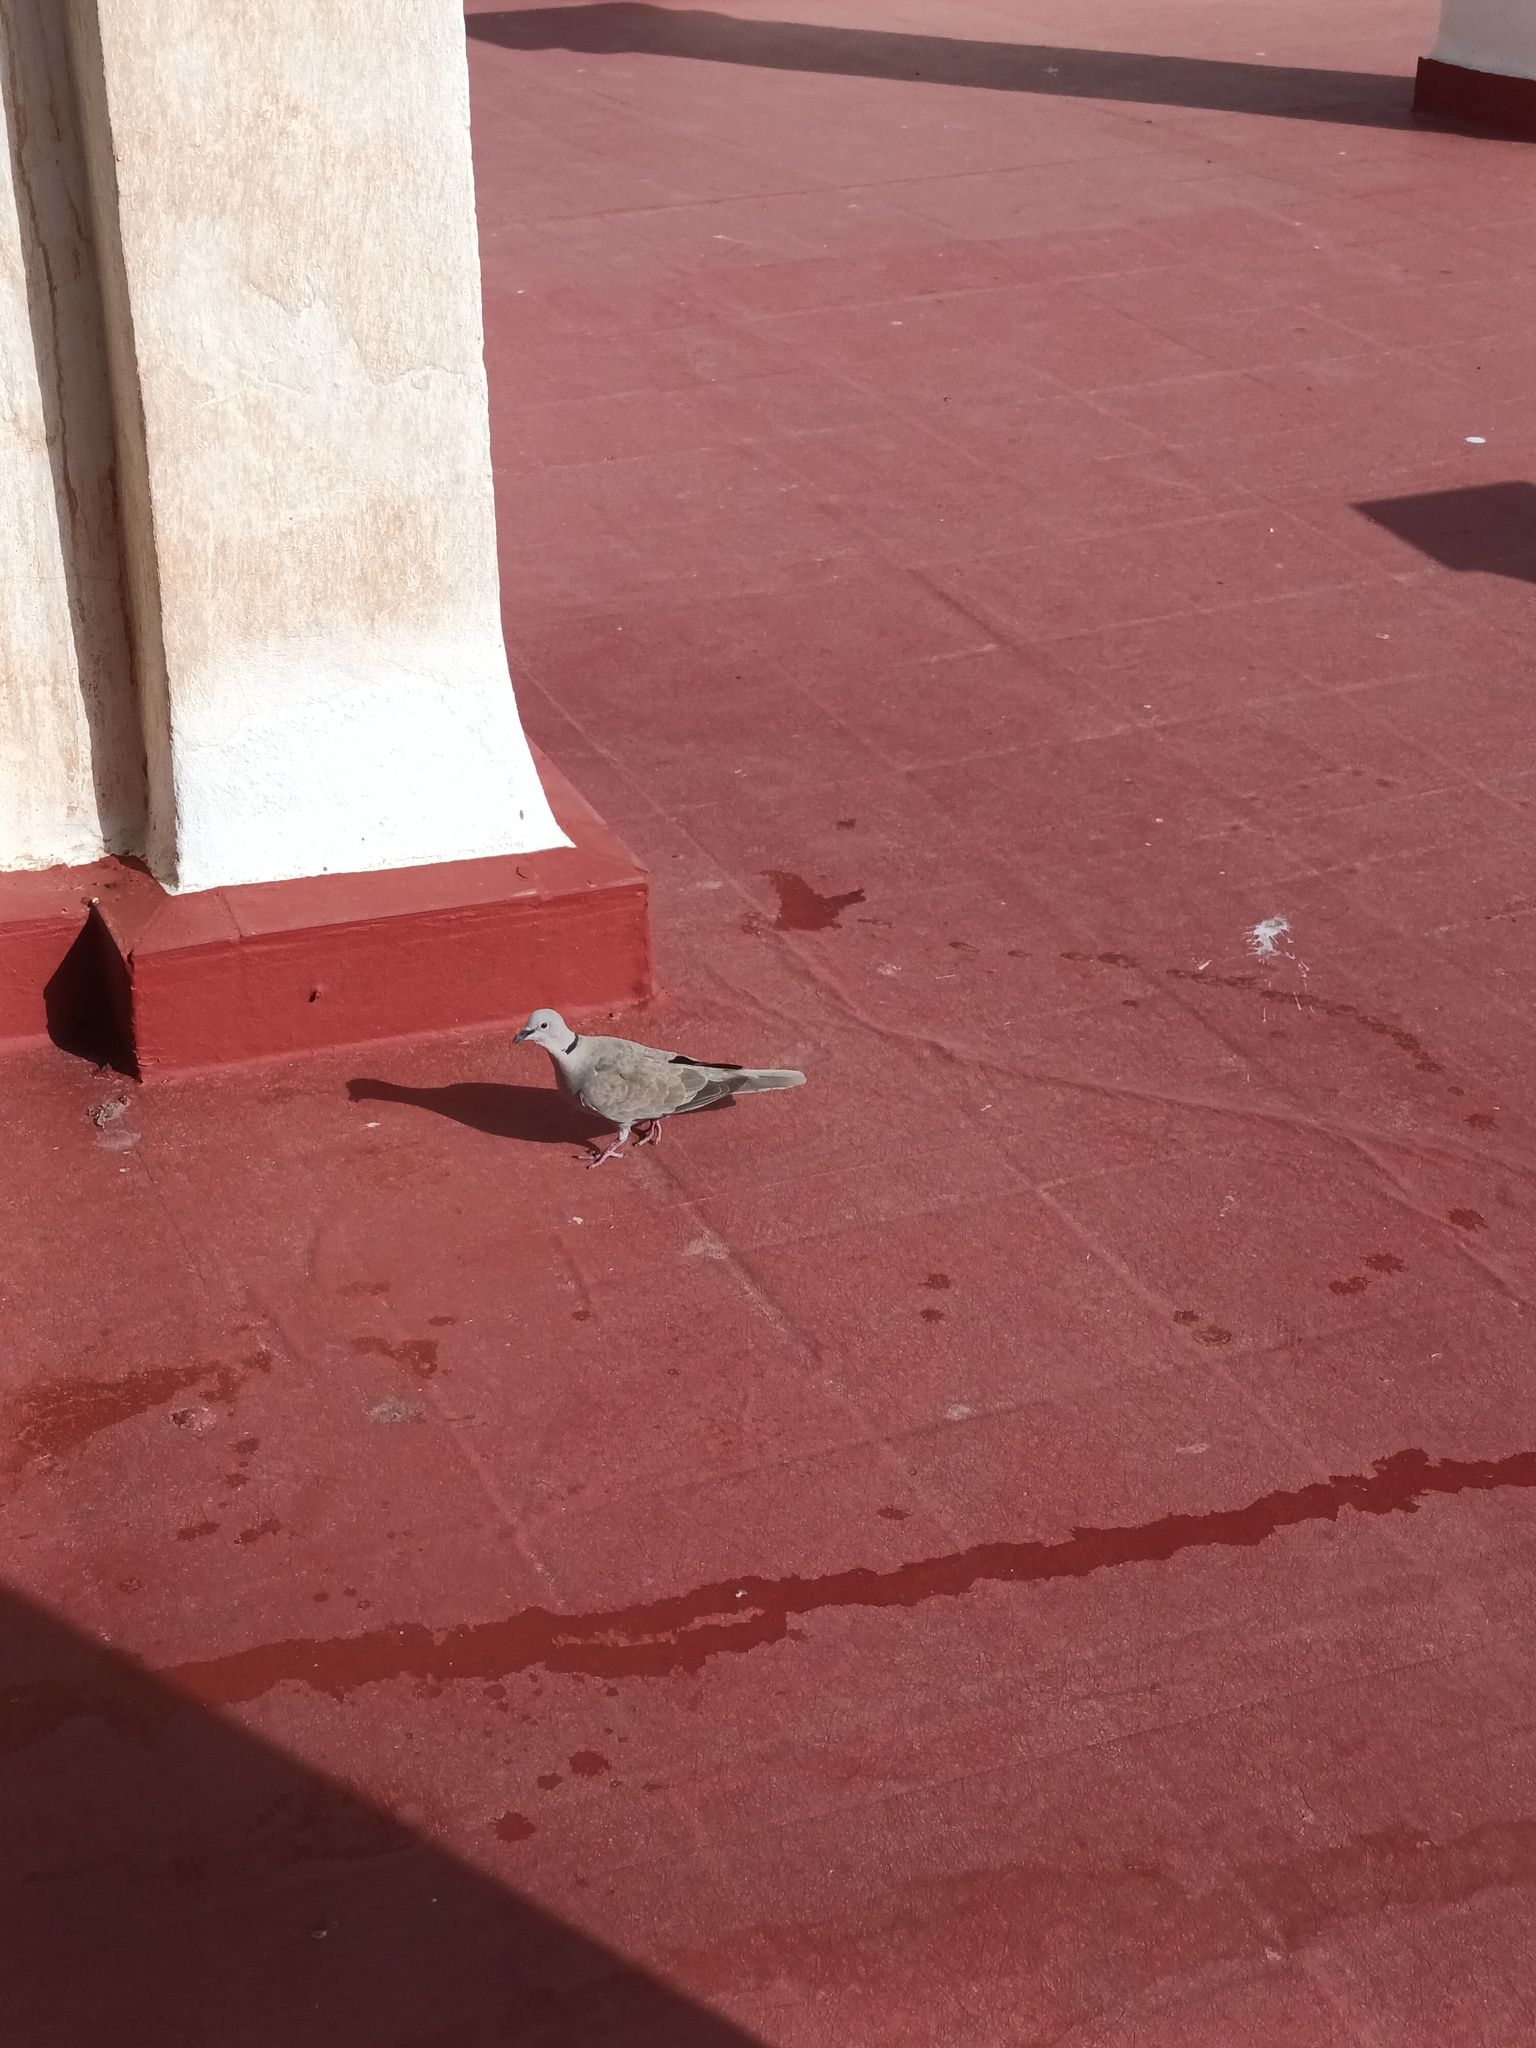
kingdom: Animalia
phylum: Chordata
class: Aves
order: Columbiformes
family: Columbidae
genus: Streptopelia
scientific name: Streptopelia decaocto
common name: Eurasian collared dove
